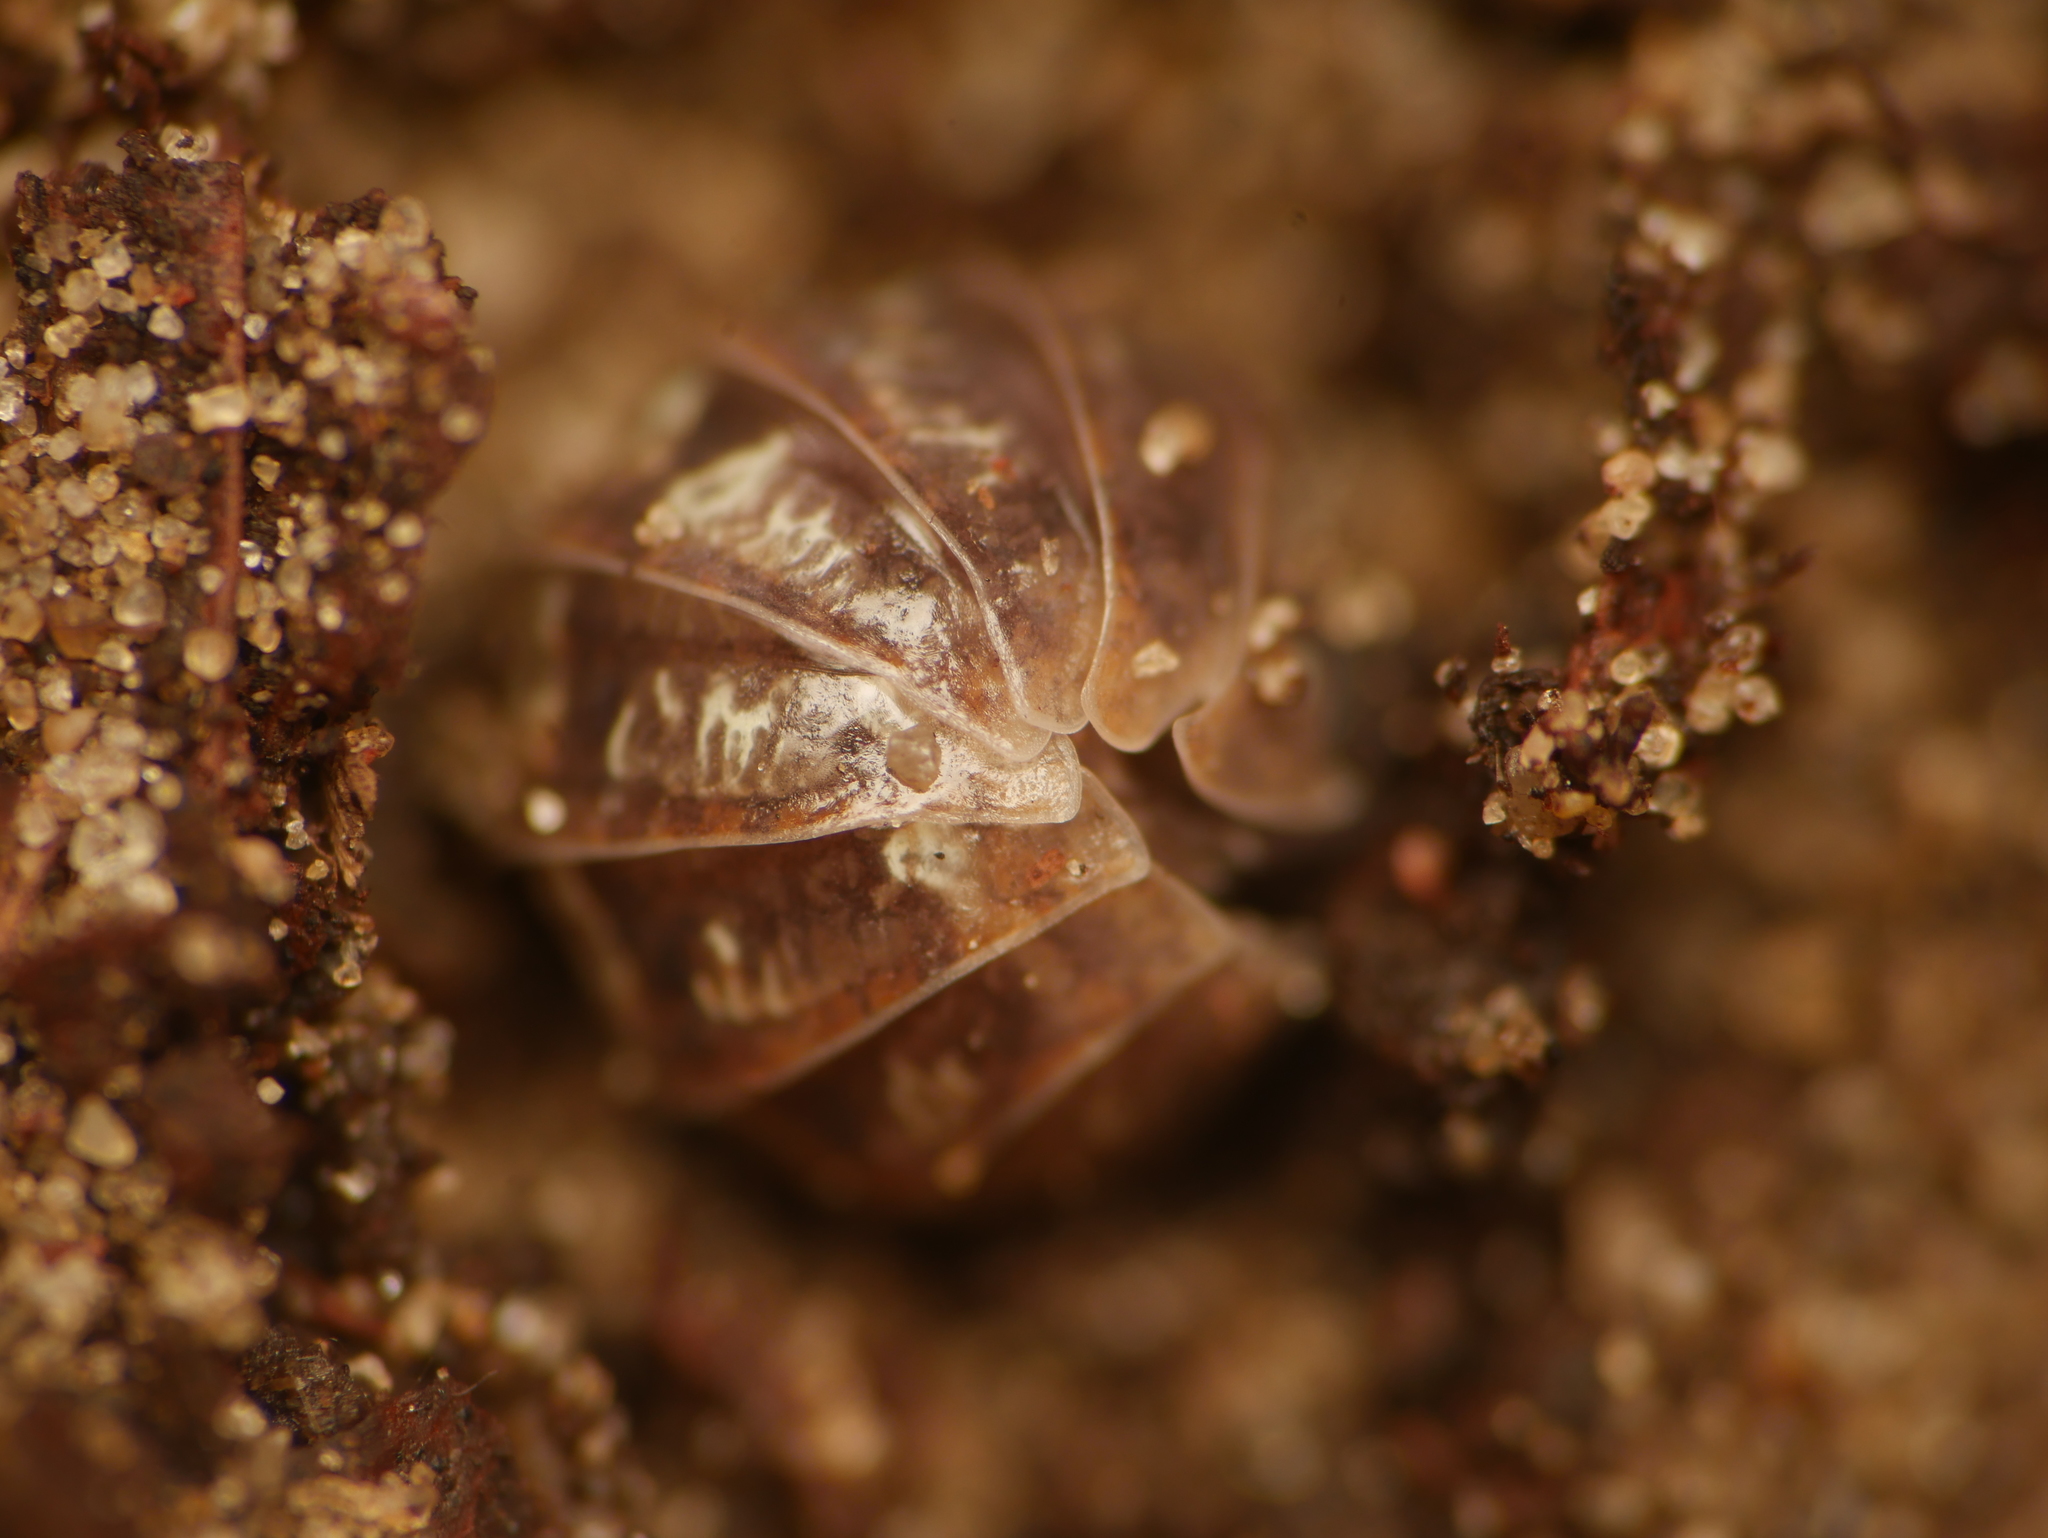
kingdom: Animalia
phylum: Arthropoda
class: Malacostraca
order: Isopoda
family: Armadillidiidae
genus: Armadillidium
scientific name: Armadillidium vulgare
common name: Common pill woodlouse
